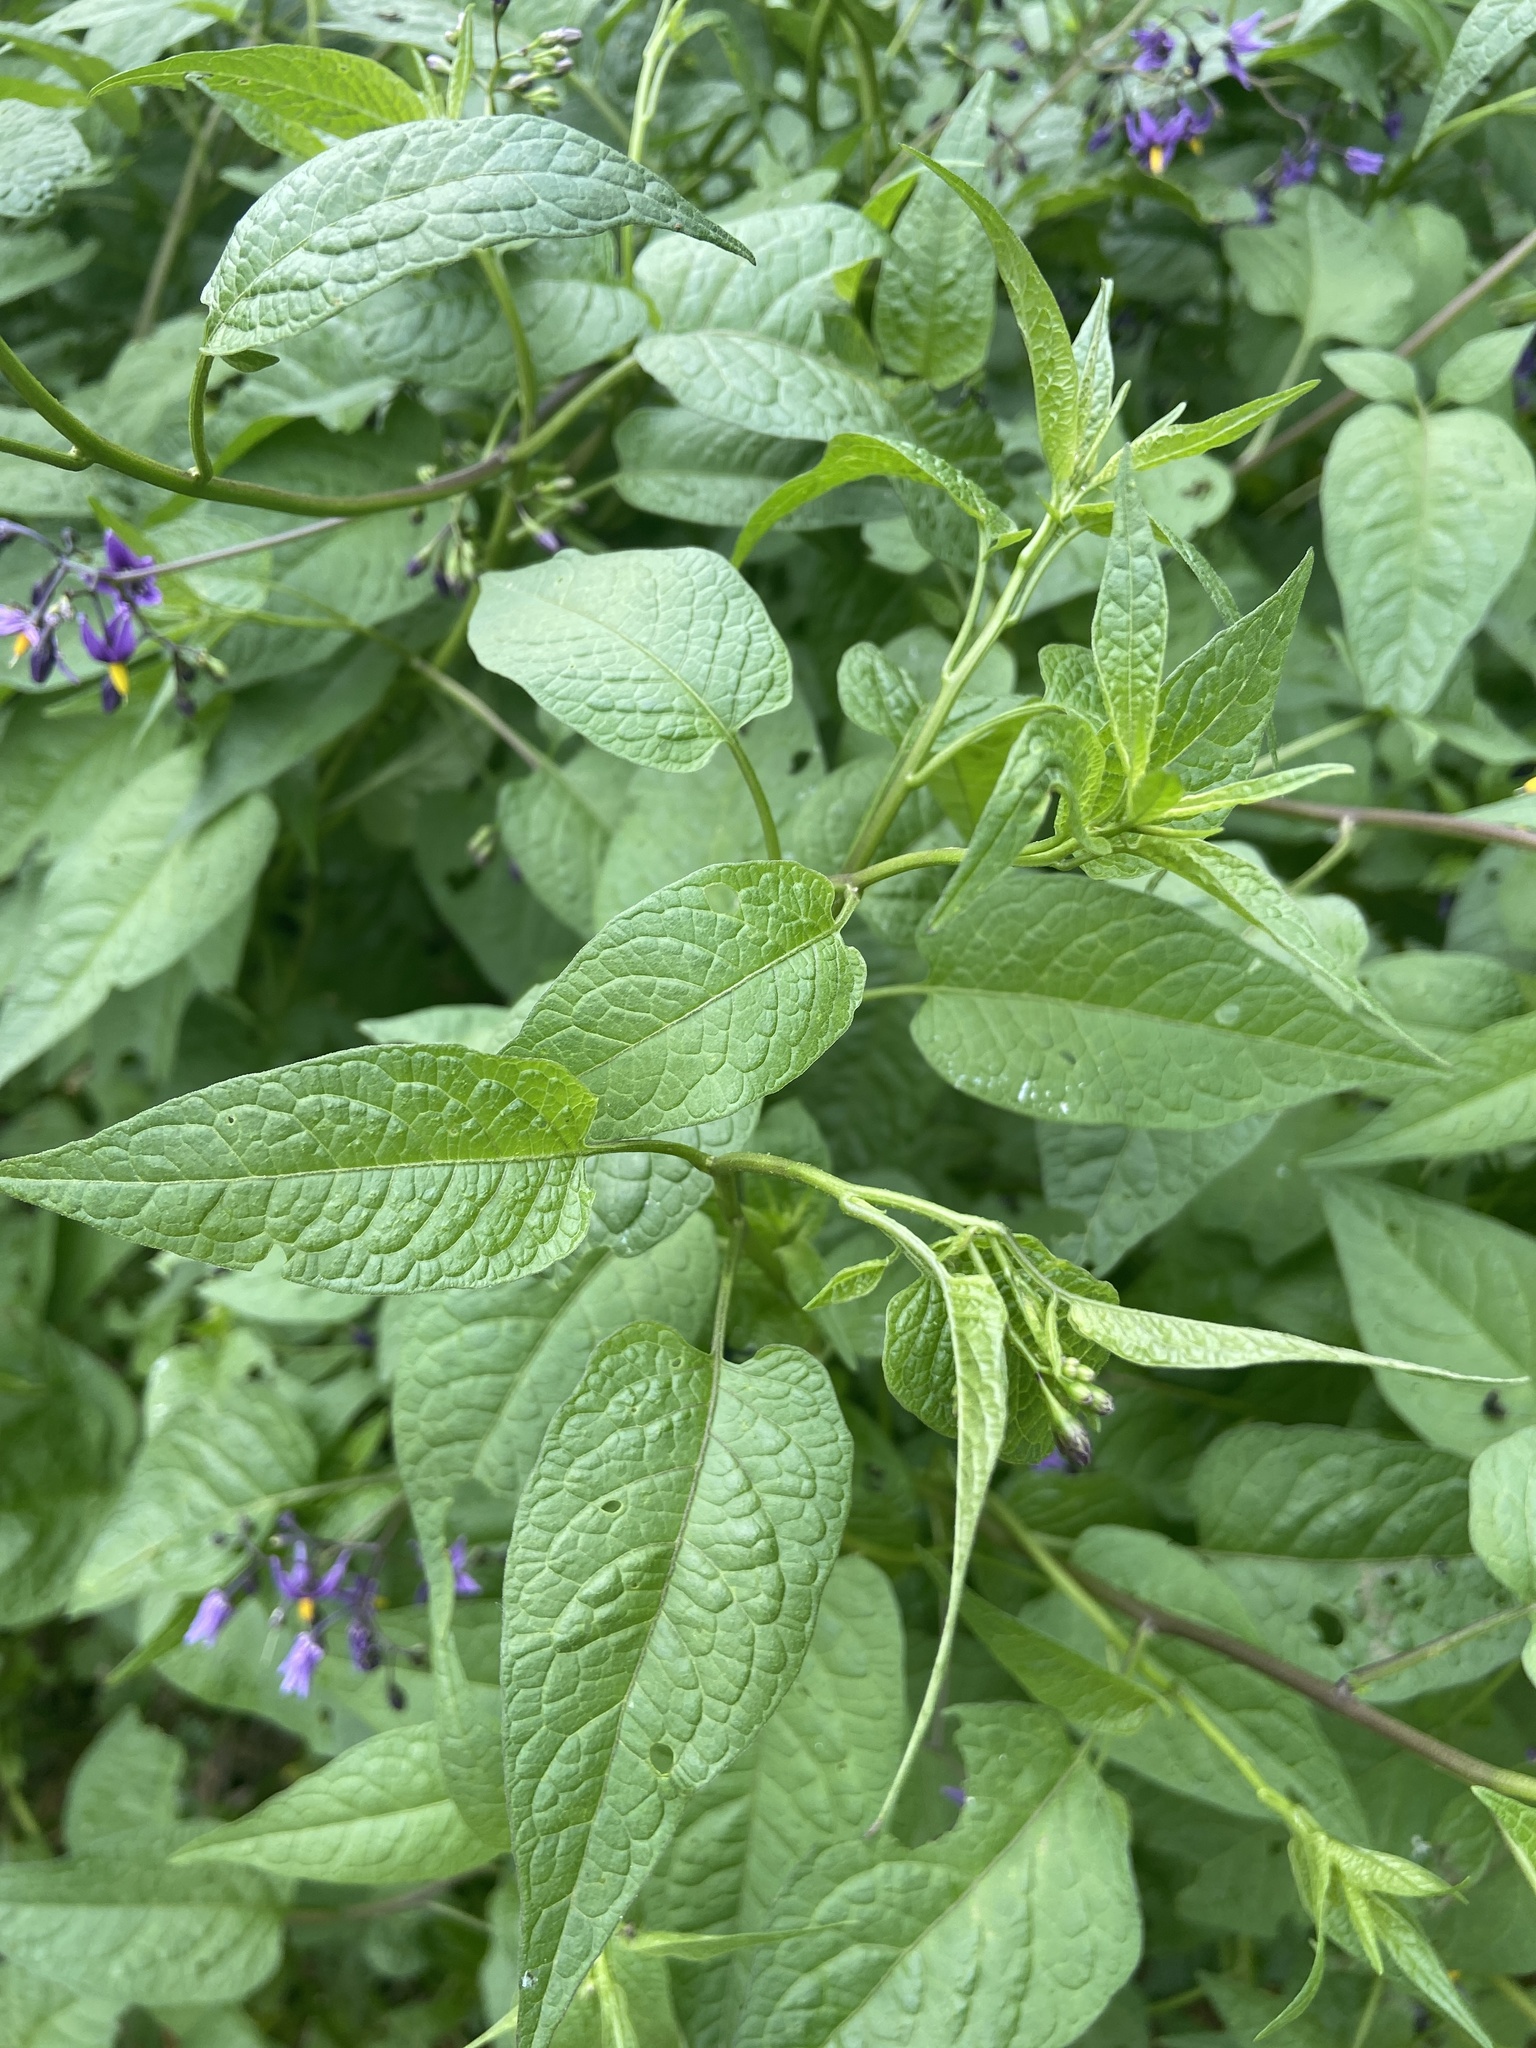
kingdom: Plantae
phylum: Tracheophyta
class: Magnoliopsida
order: Solanales
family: Solanaceae
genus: Solanum
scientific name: Solanum dulcamara
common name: Climbing nightshade
